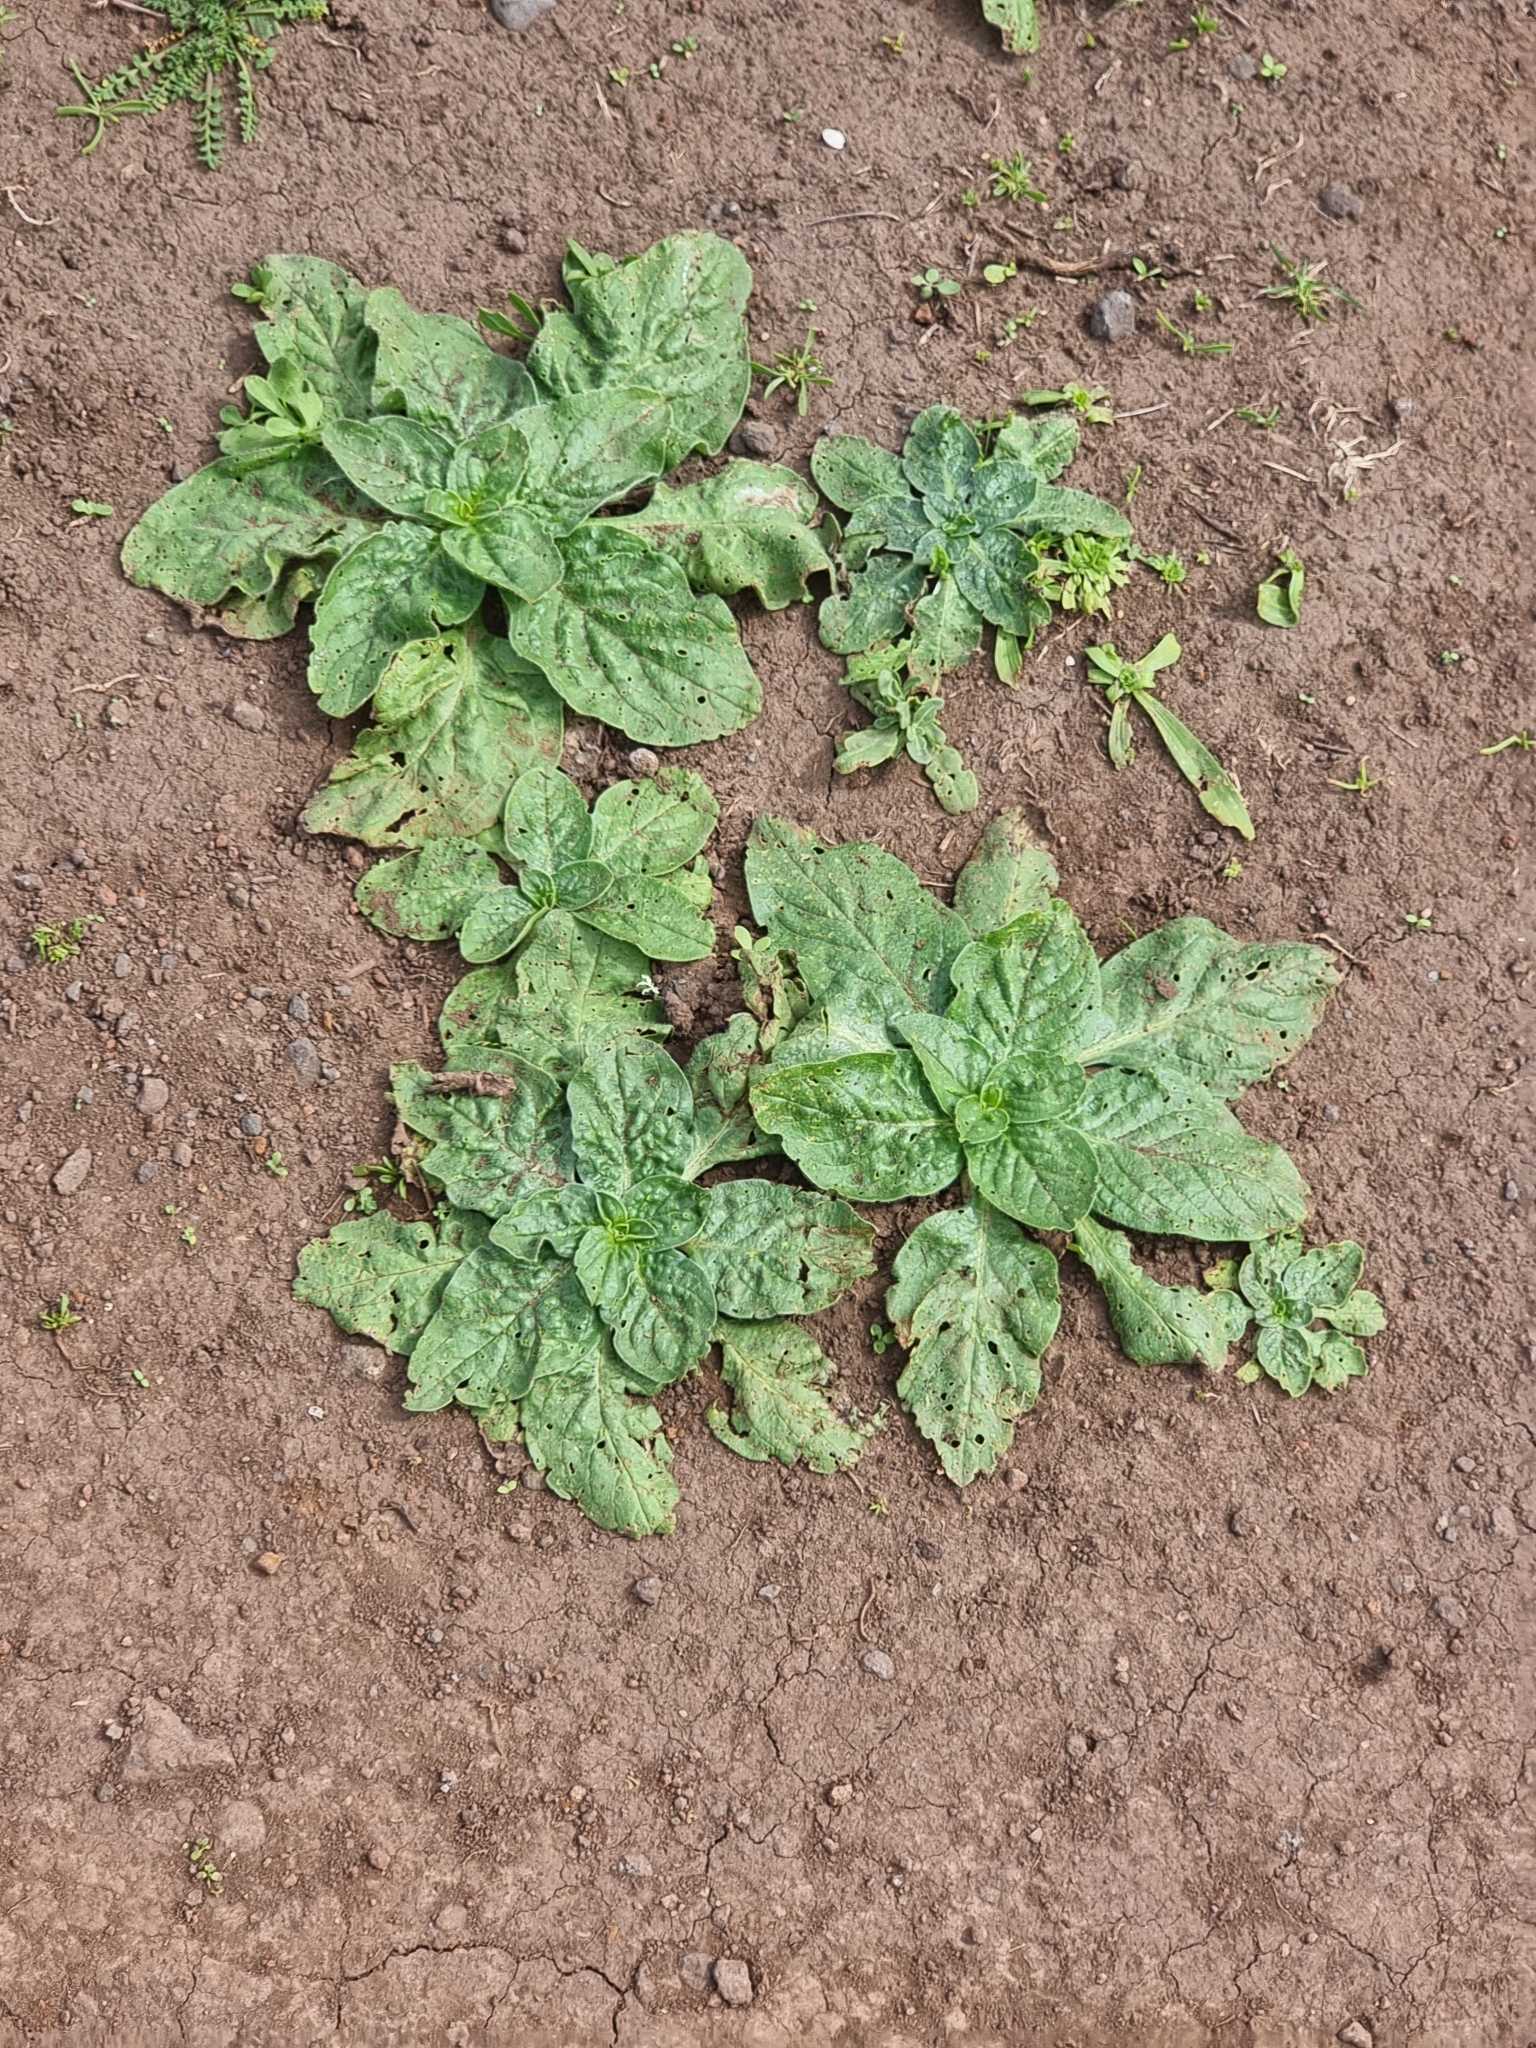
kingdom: Plantae
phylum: Tracheophyta
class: Magnoliopsida
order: Boraginales
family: Boraginaceae
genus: Echium
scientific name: Echium plantagineum
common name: Purple viper's-bugloss
